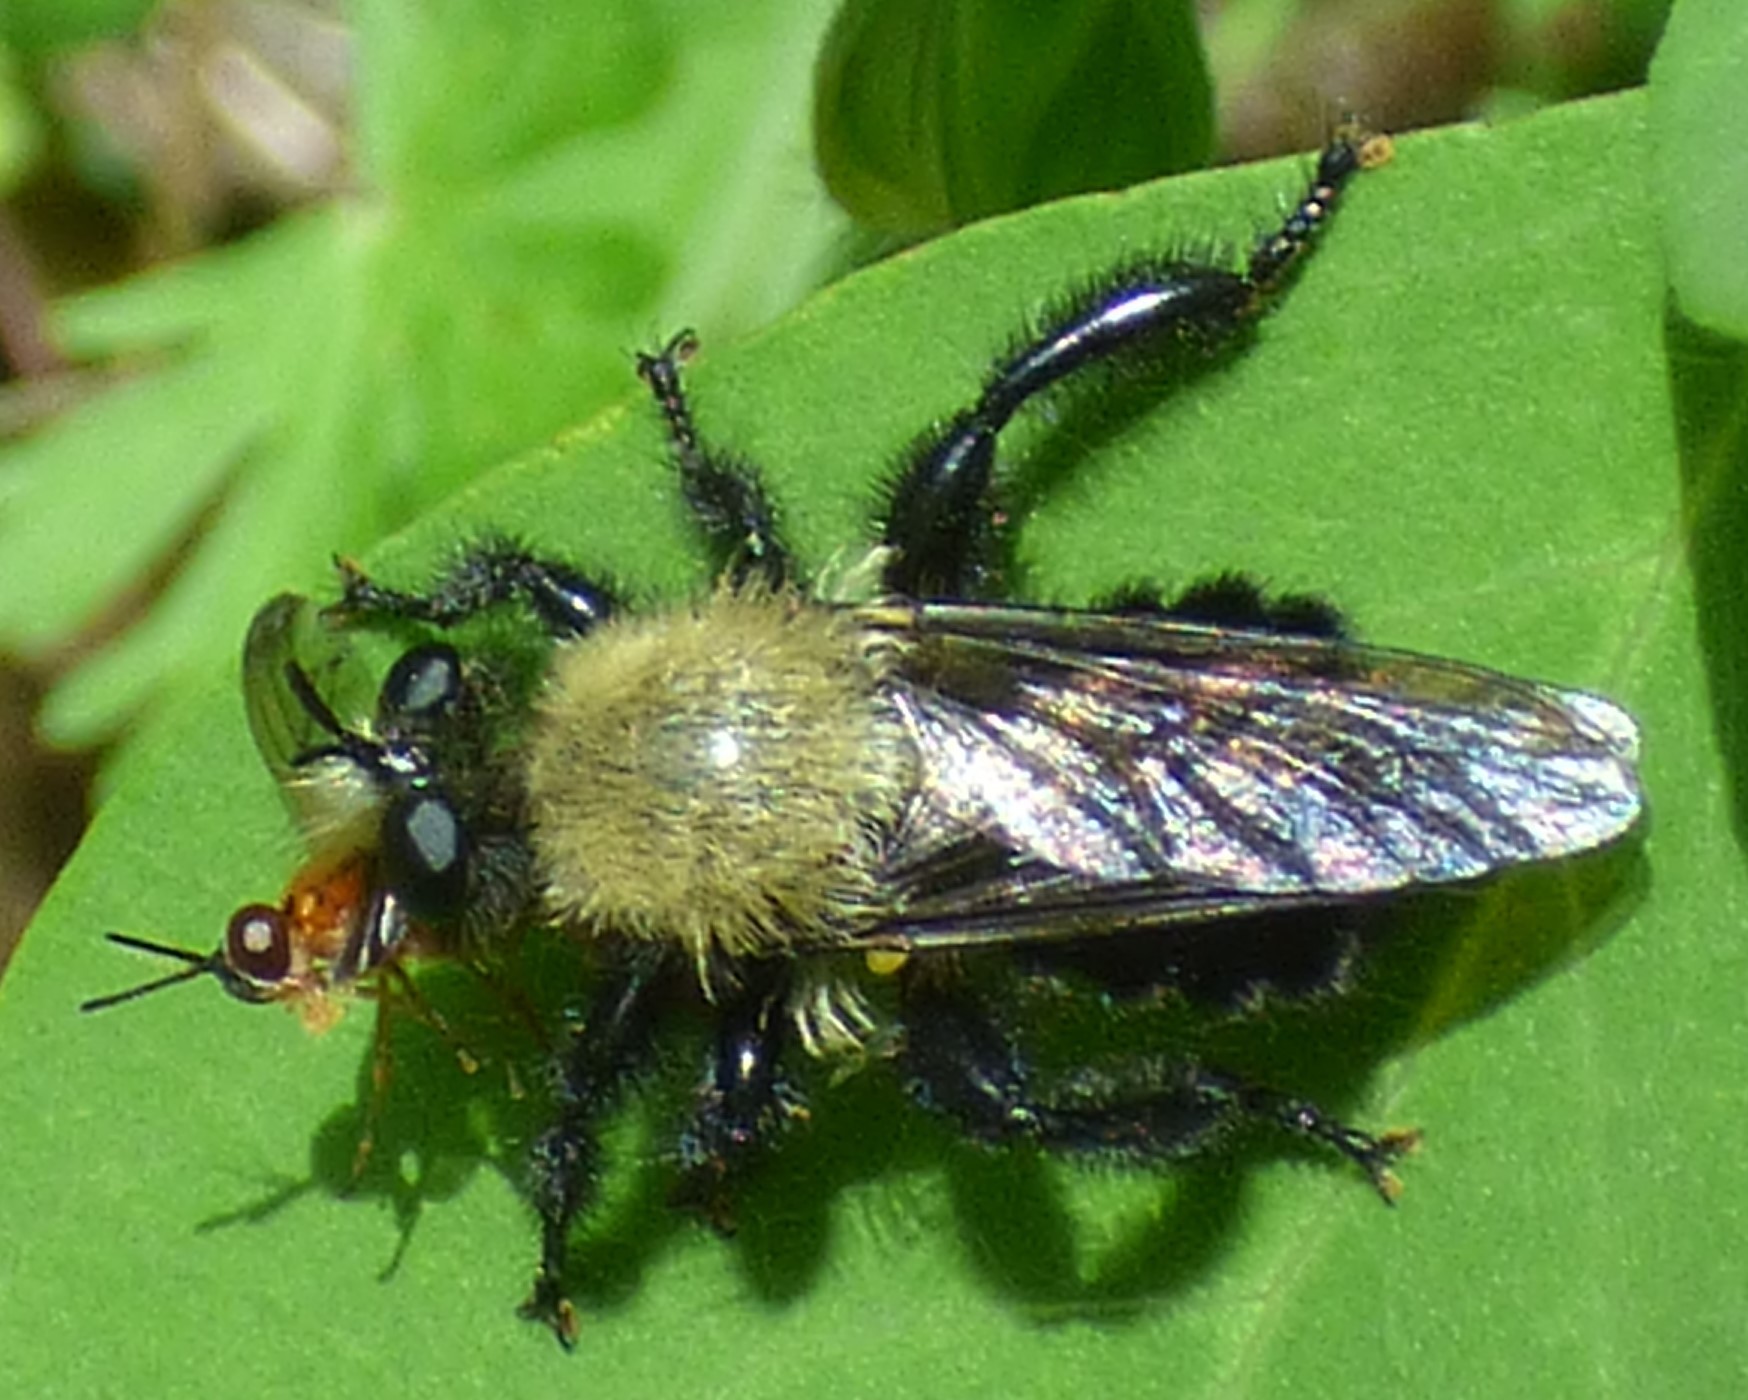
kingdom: Animalia
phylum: Arthropoda
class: Insecta
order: Diptera
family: Asilidae
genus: Laphria
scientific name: Laphria flavicollis
